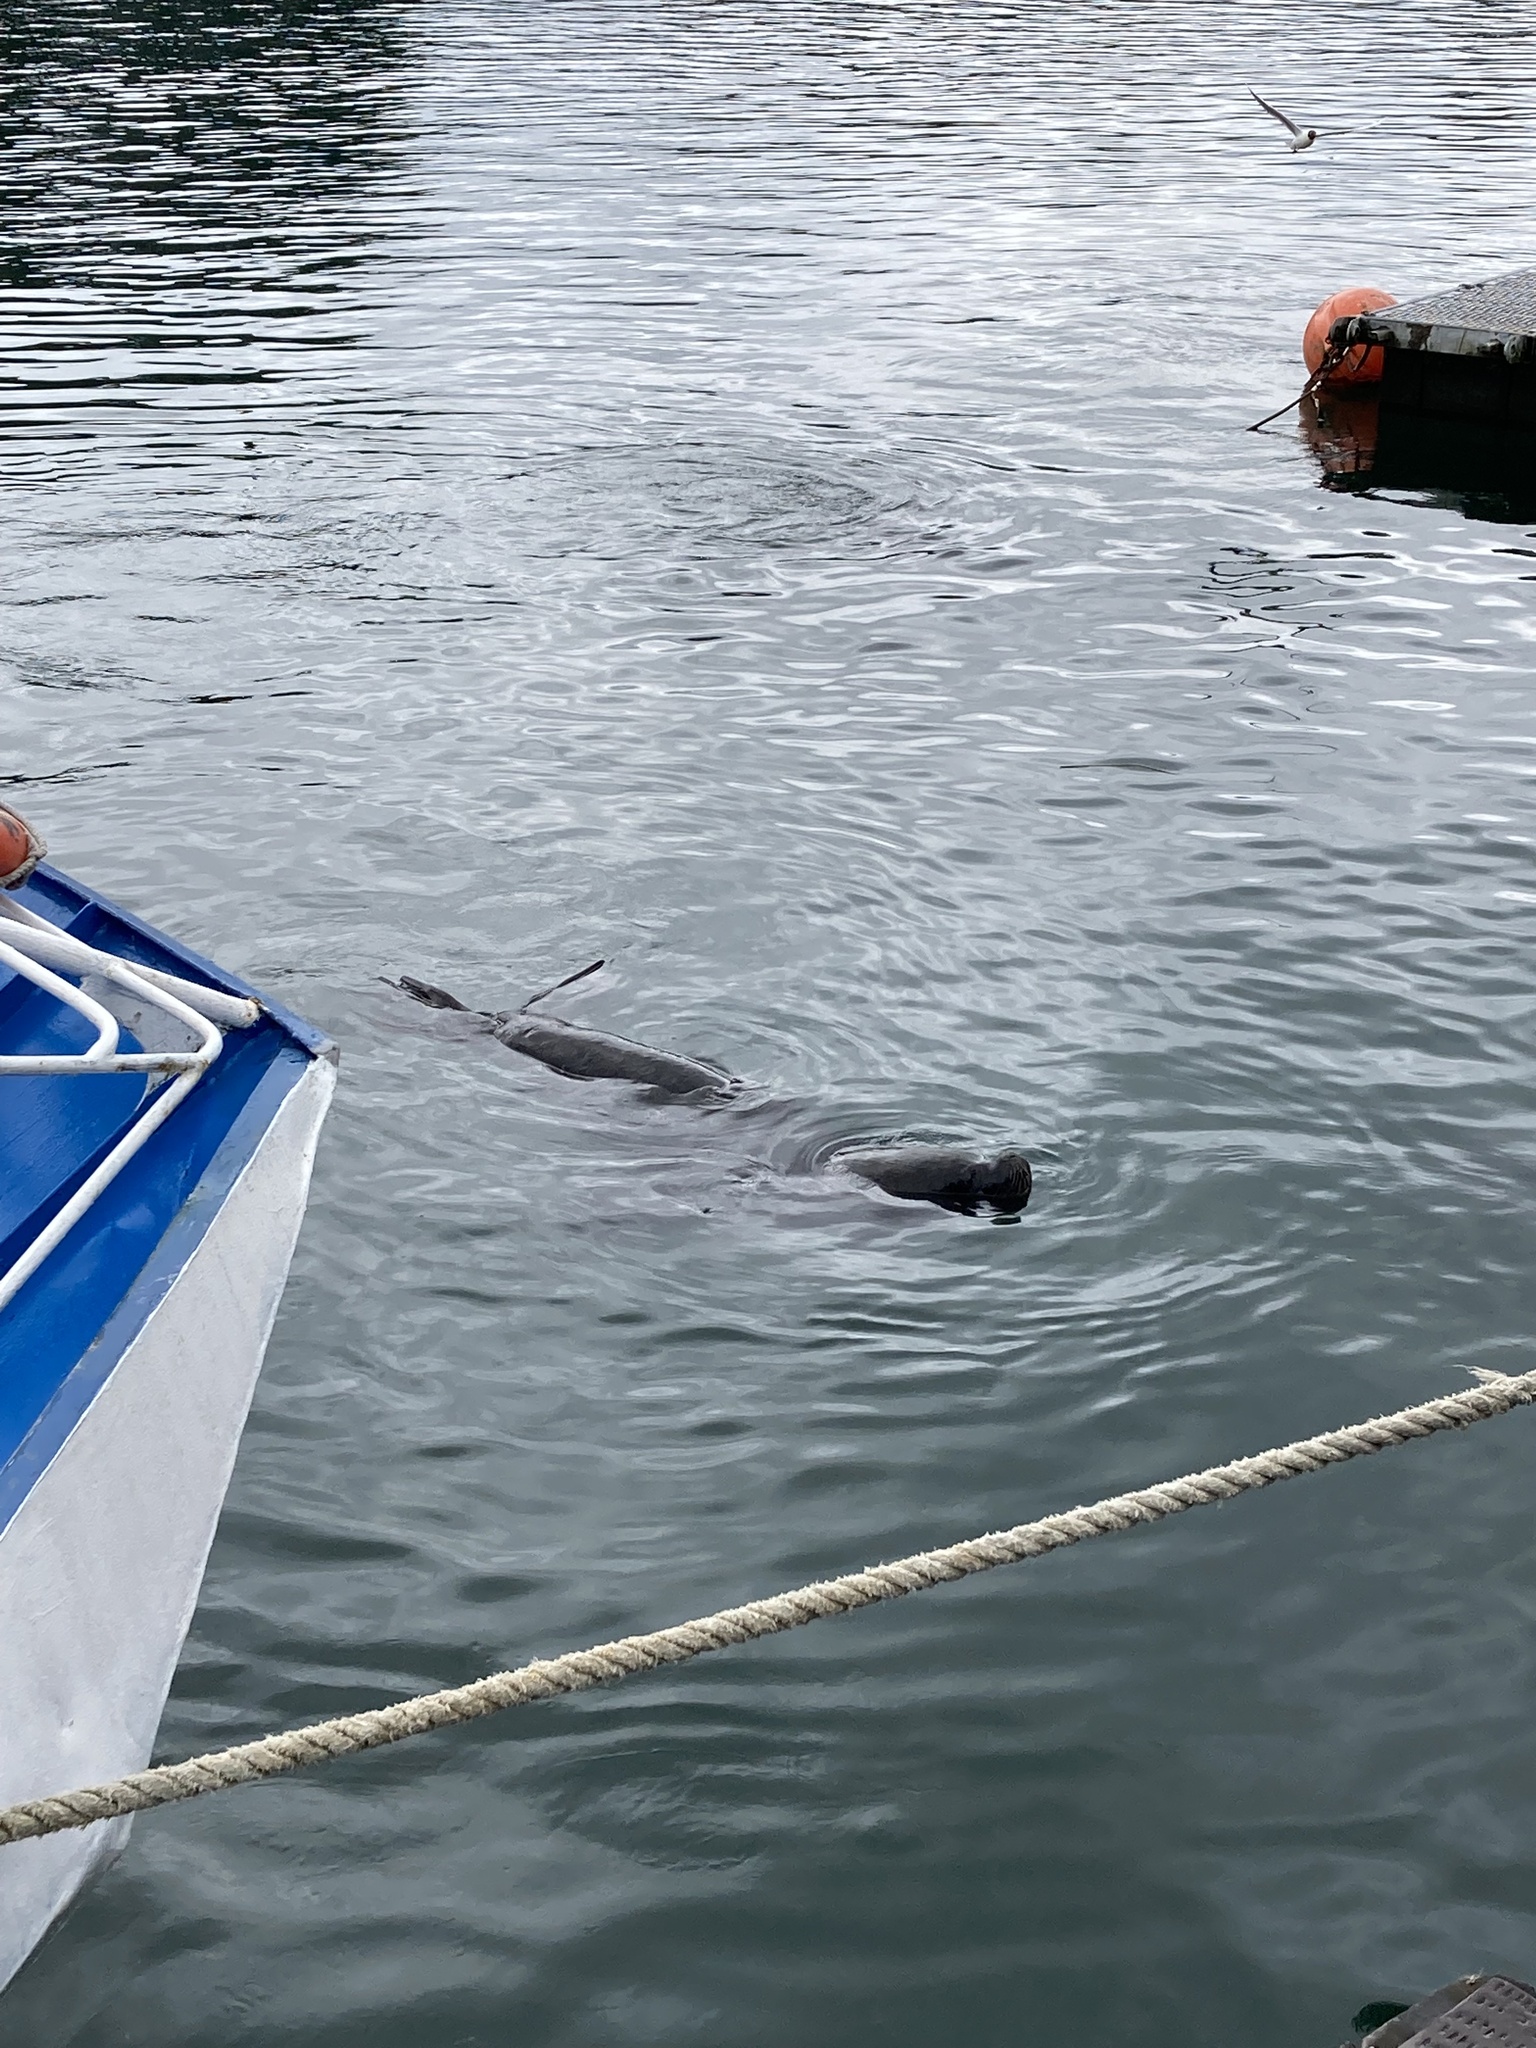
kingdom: Animalia
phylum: Chordata
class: Mammalia
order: Carnivora
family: Otariidae
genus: Otaria
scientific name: Otaria byronia
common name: South american sea lion
